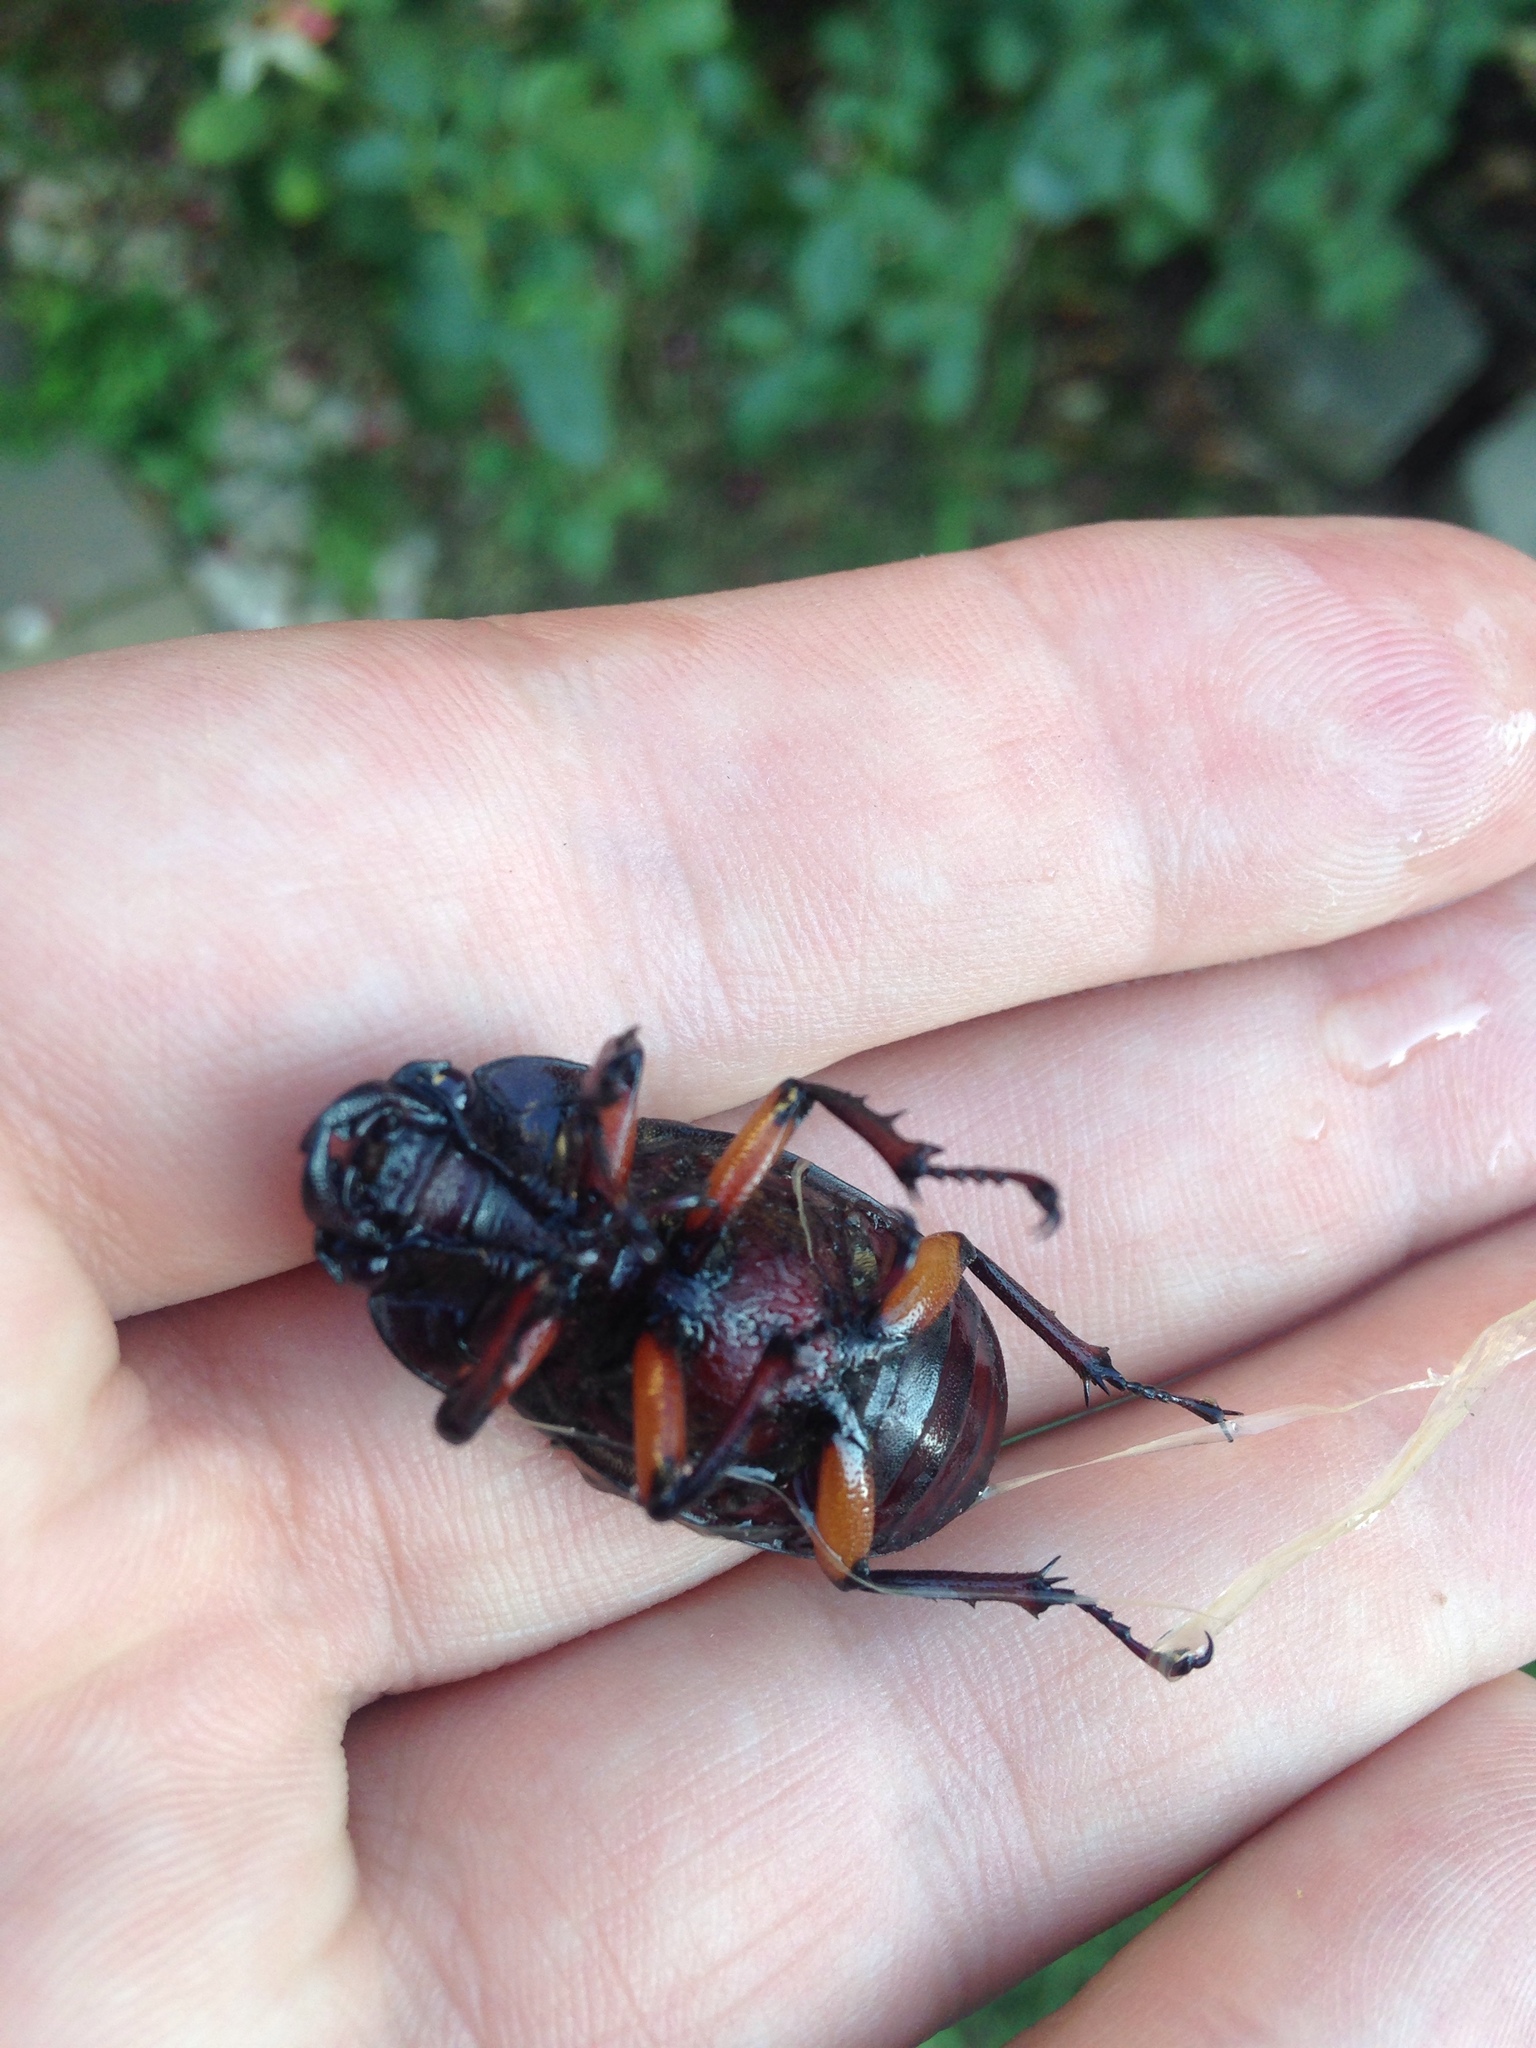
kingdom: Animalia
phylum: Arthropoda
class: Insecta
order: Coleoptera
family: Lucanidae
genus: Lucanus
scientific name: Lucanus capreolus
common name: Stag beetle
